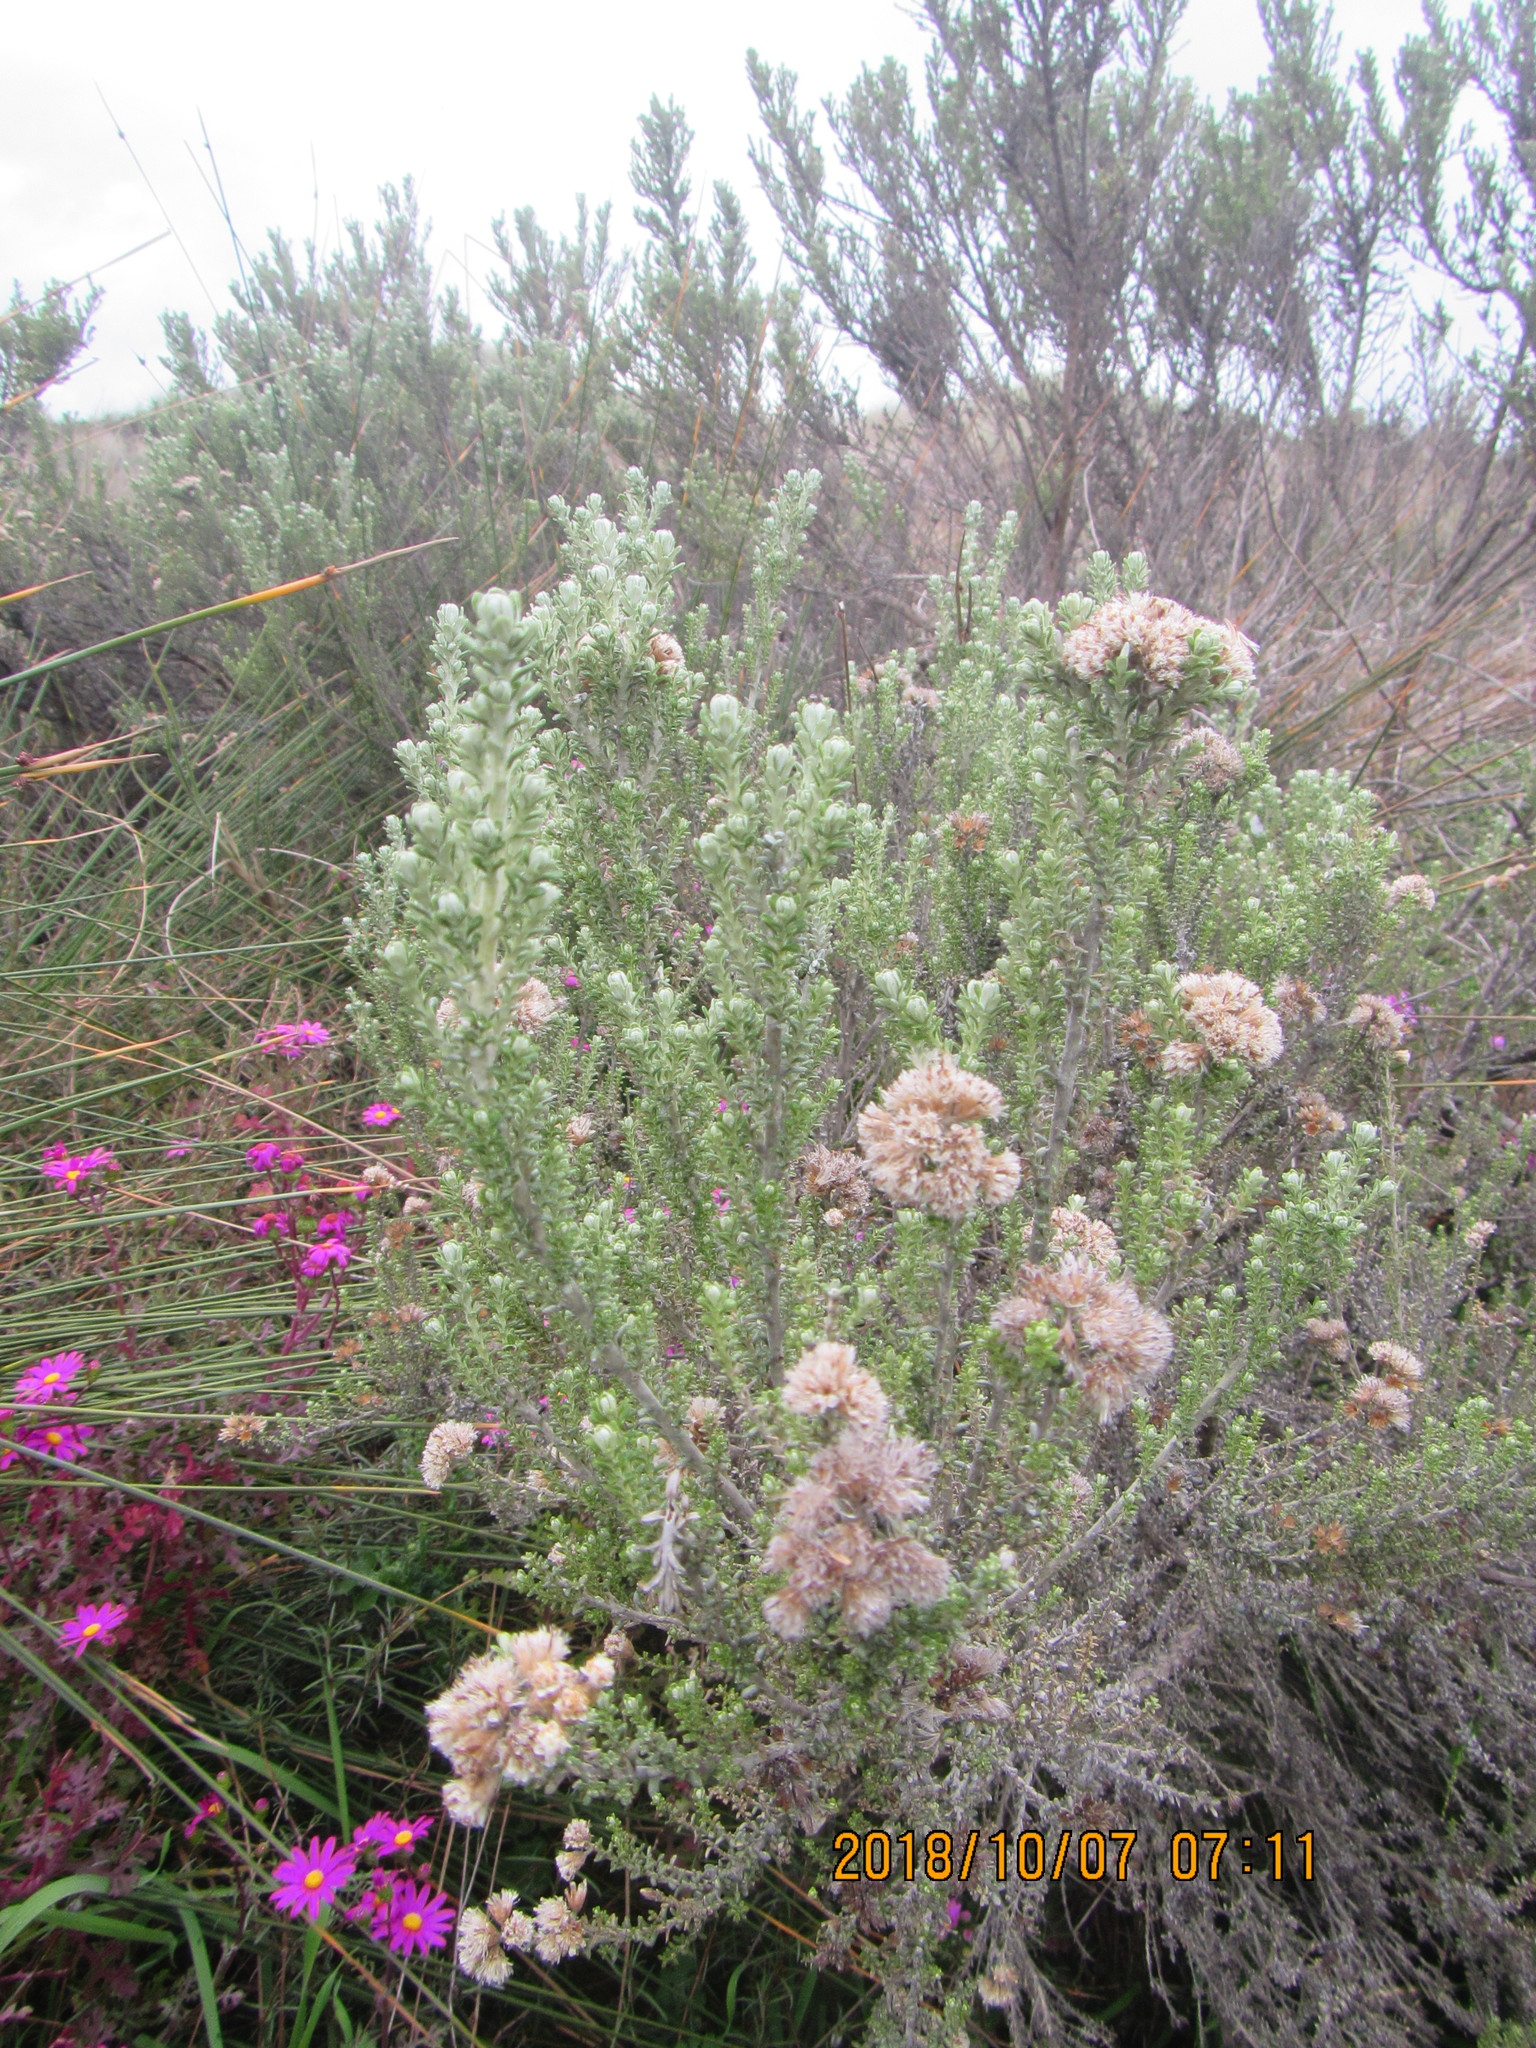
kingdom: Plantae
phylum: Tracheophyta
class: Magnoliopsida
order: Asterales
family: Asteraceae
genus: Ozothamnus
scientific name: Ozothamnus leptophyllus
